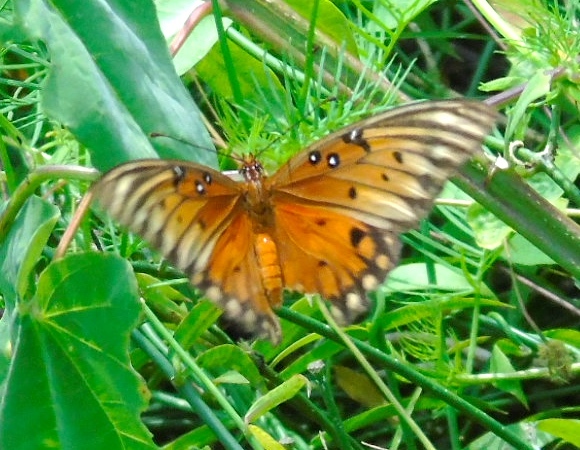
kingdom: Animalia
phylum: Arthropoda
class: Insecta
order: Lepidoptera
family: Nymphalidae
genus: Dione
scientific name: Dione vanillae
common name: Gulf fritillary
